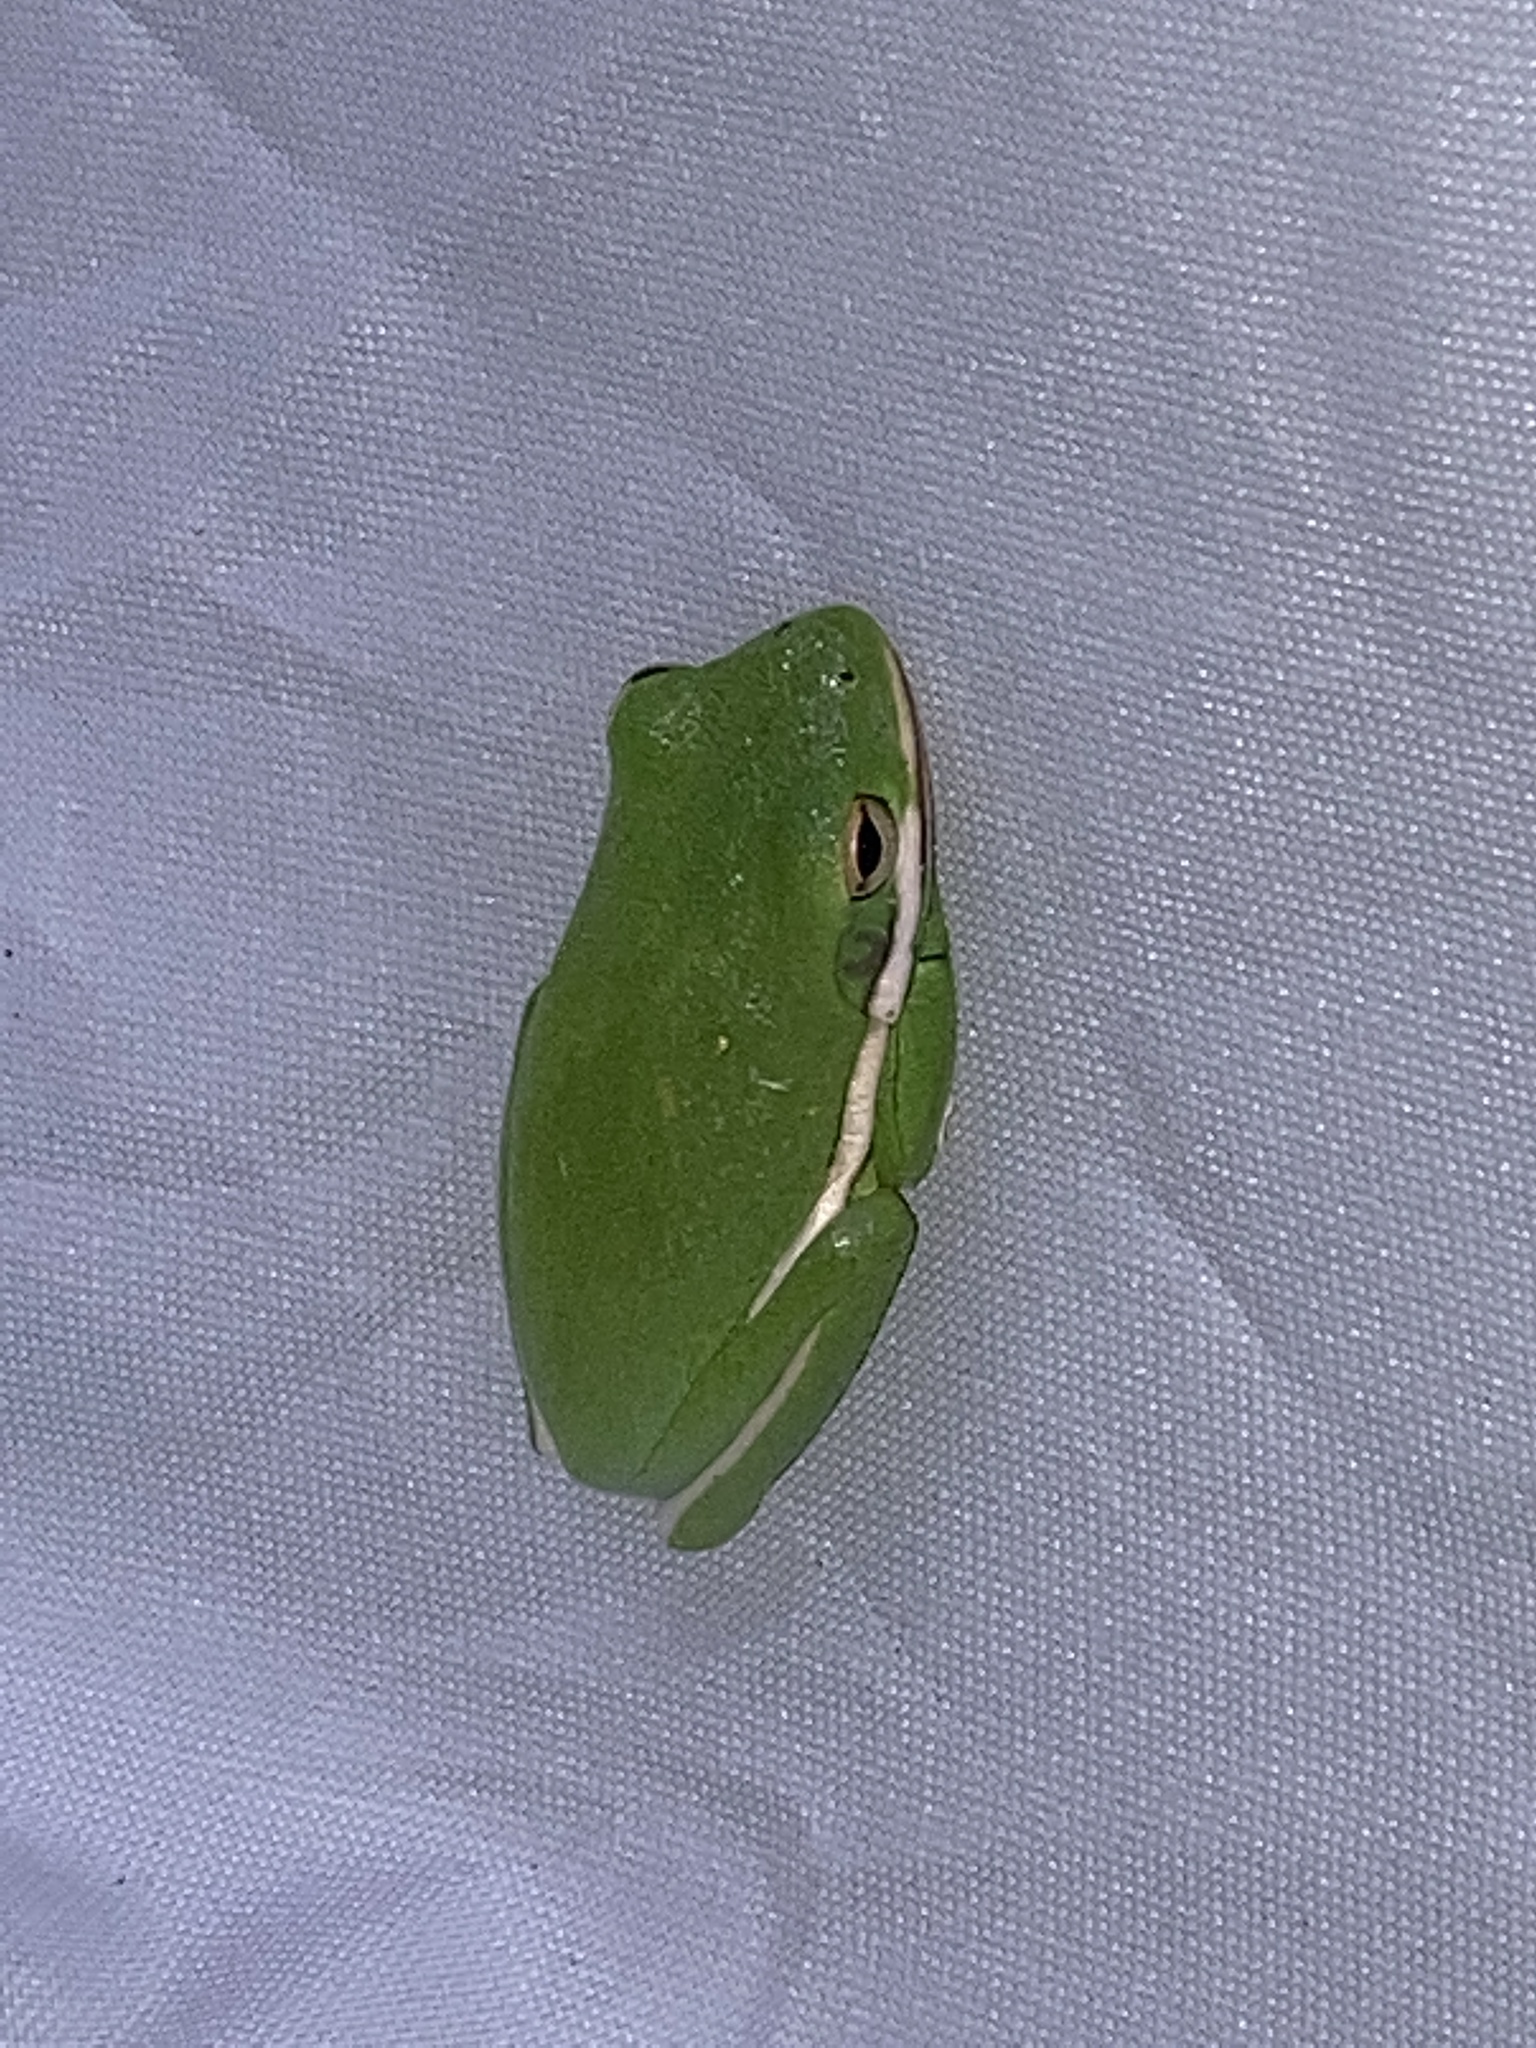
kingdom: Animalia
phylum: Chordata
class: Amphibia
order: Anura
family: Hylidae
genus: Dryophytes
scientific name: Dryophytes cinereus
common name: Green treefrog
